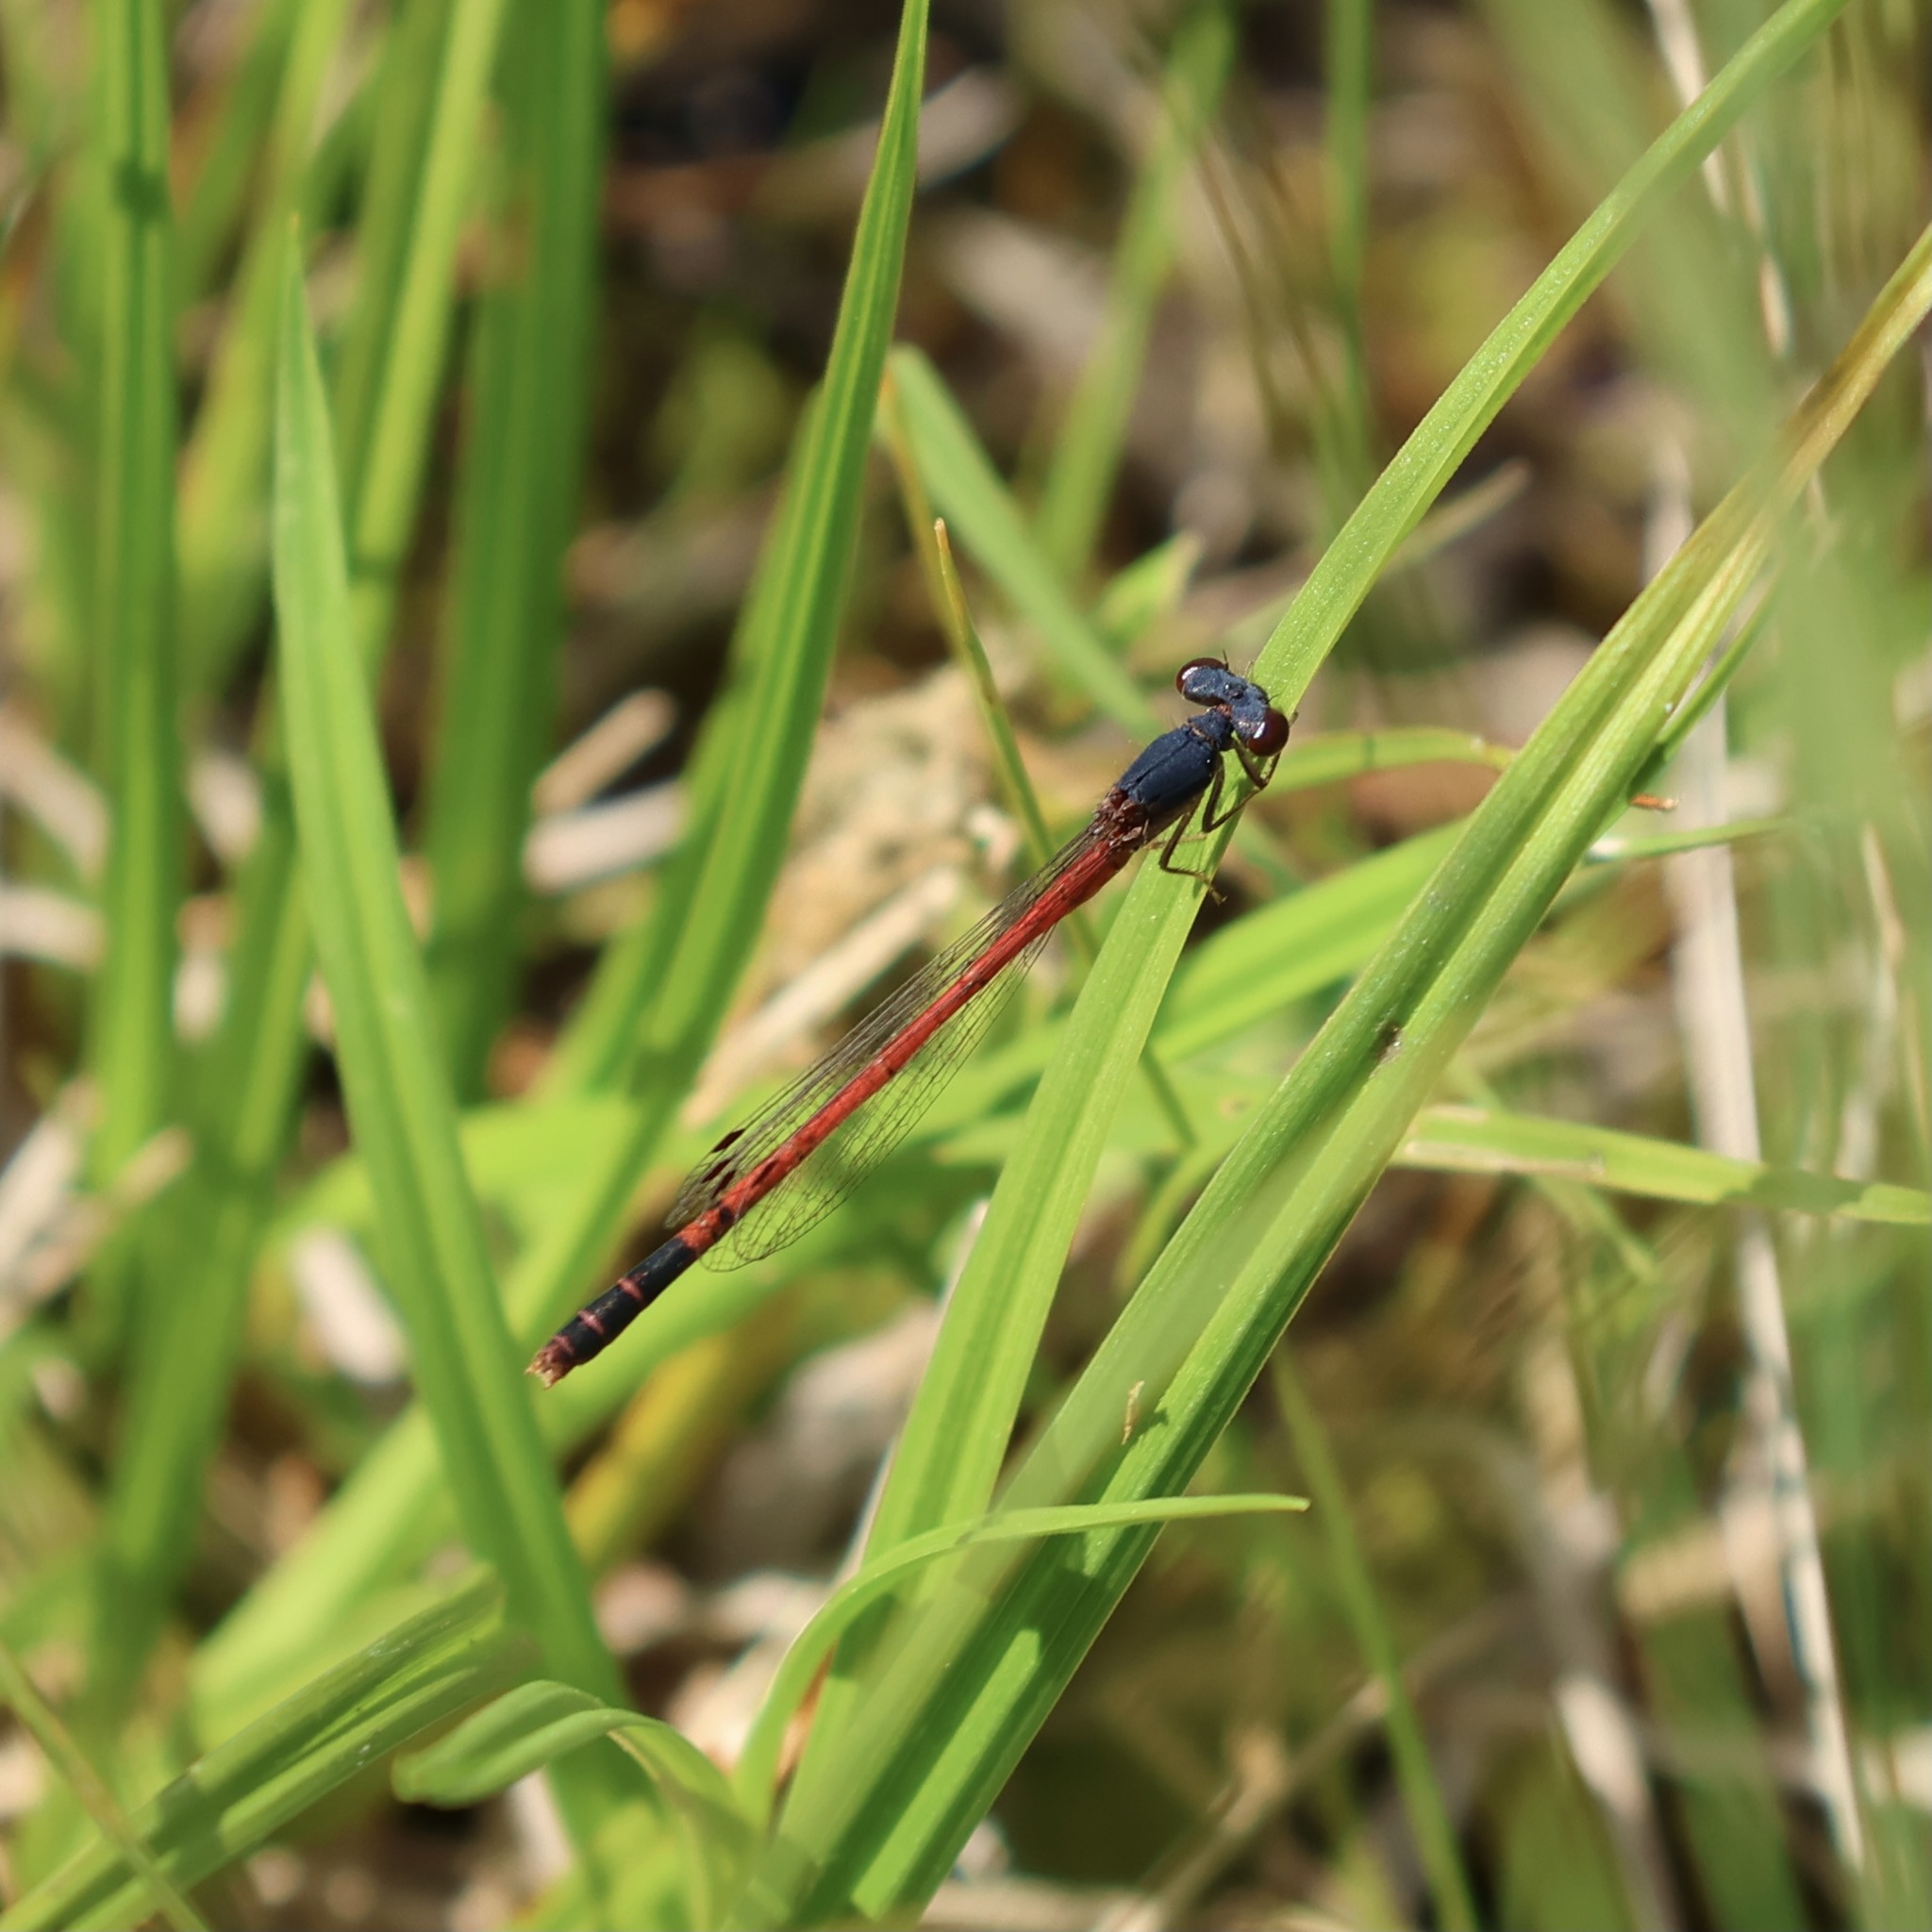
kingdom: Animalia
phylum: Arthropoda
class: Insecta
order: Odonata
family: Coenagrionidae
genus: Amphiagrion
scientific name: Amphiagrion saucium
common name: Eastern red damsel
